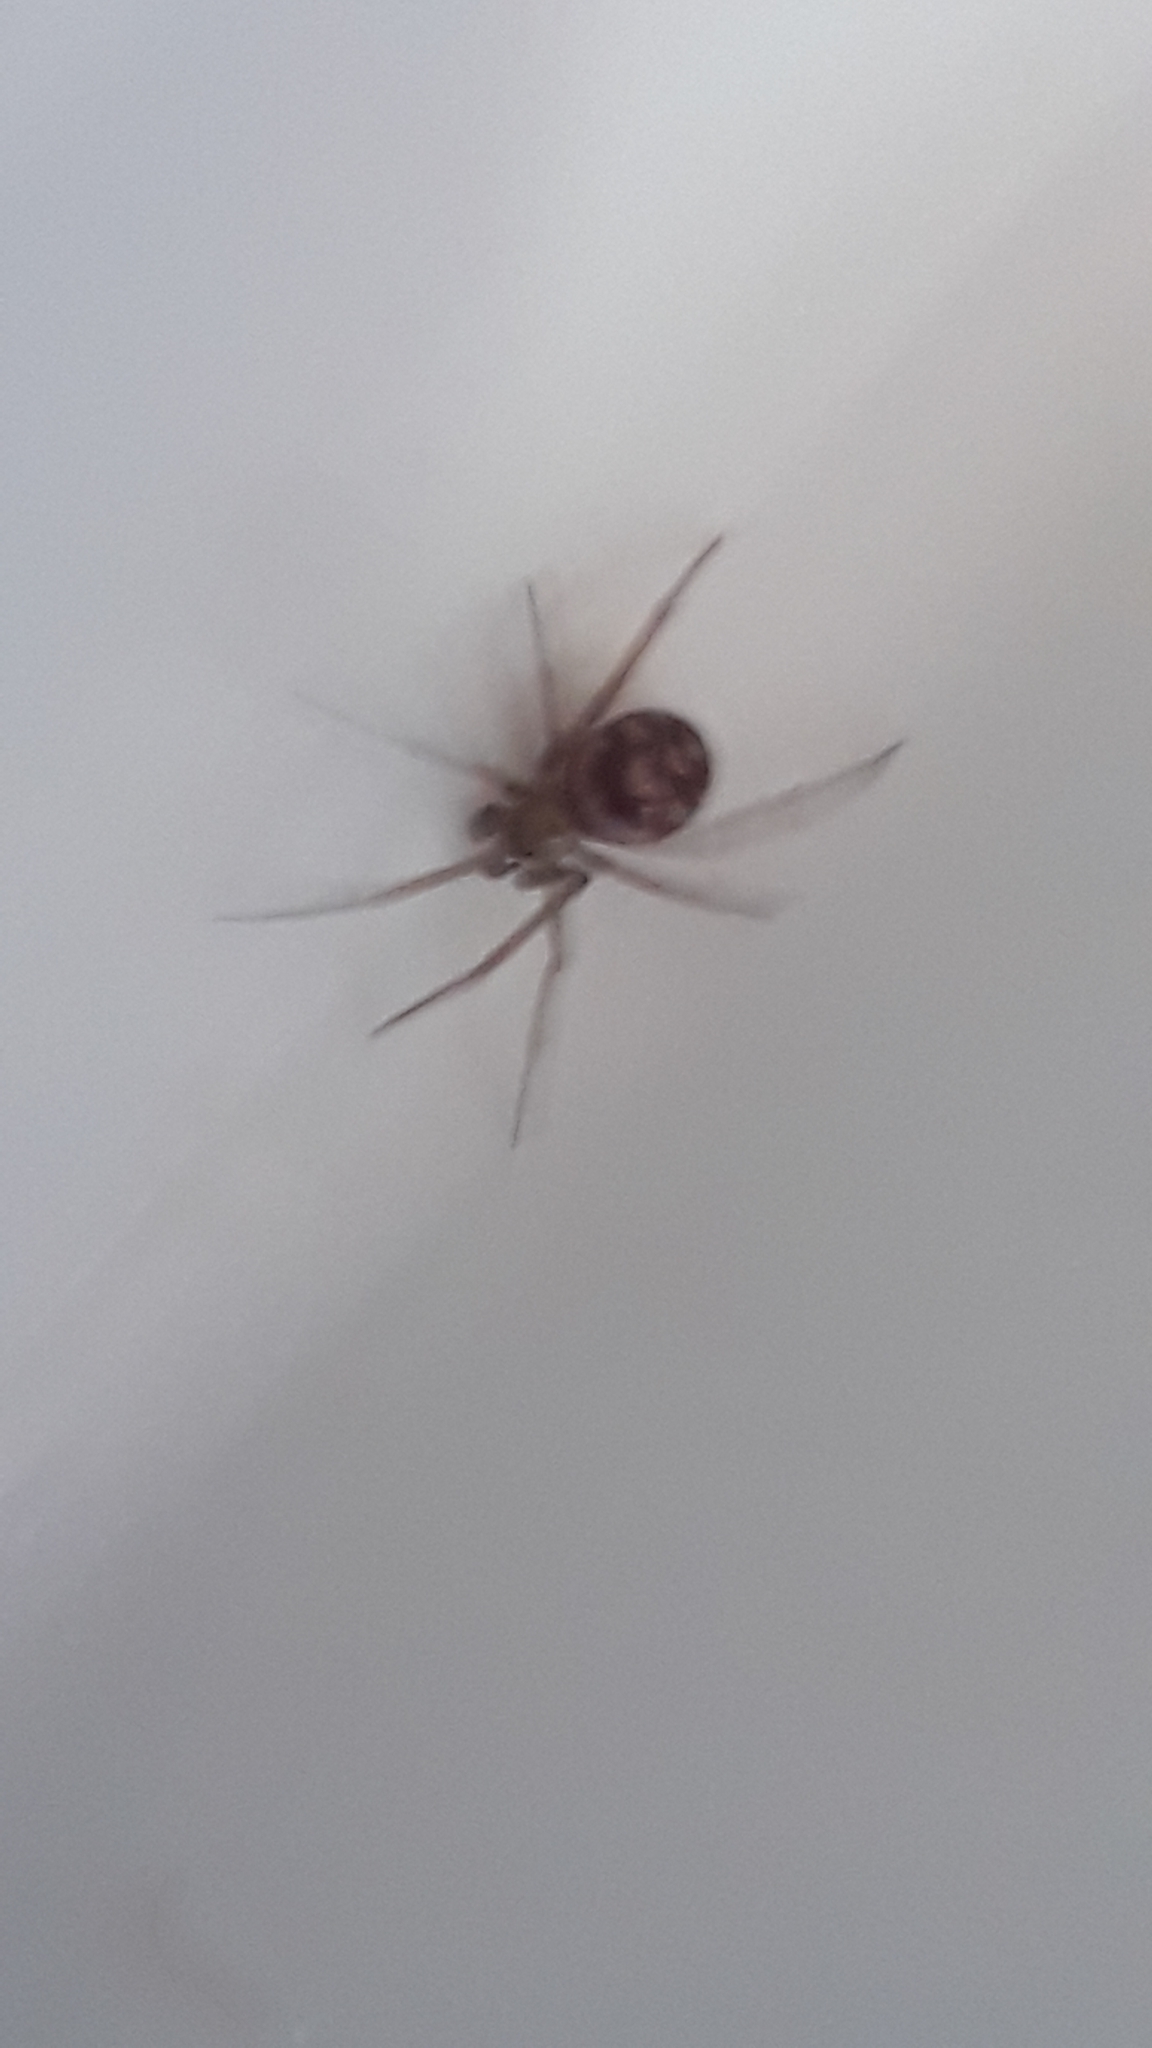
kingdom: Animalia
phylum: Arthropoda
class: Arachnida
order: Araneae
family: Theridiidae
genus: Steatoda
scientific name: Steatoda grossa
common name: False black widow
